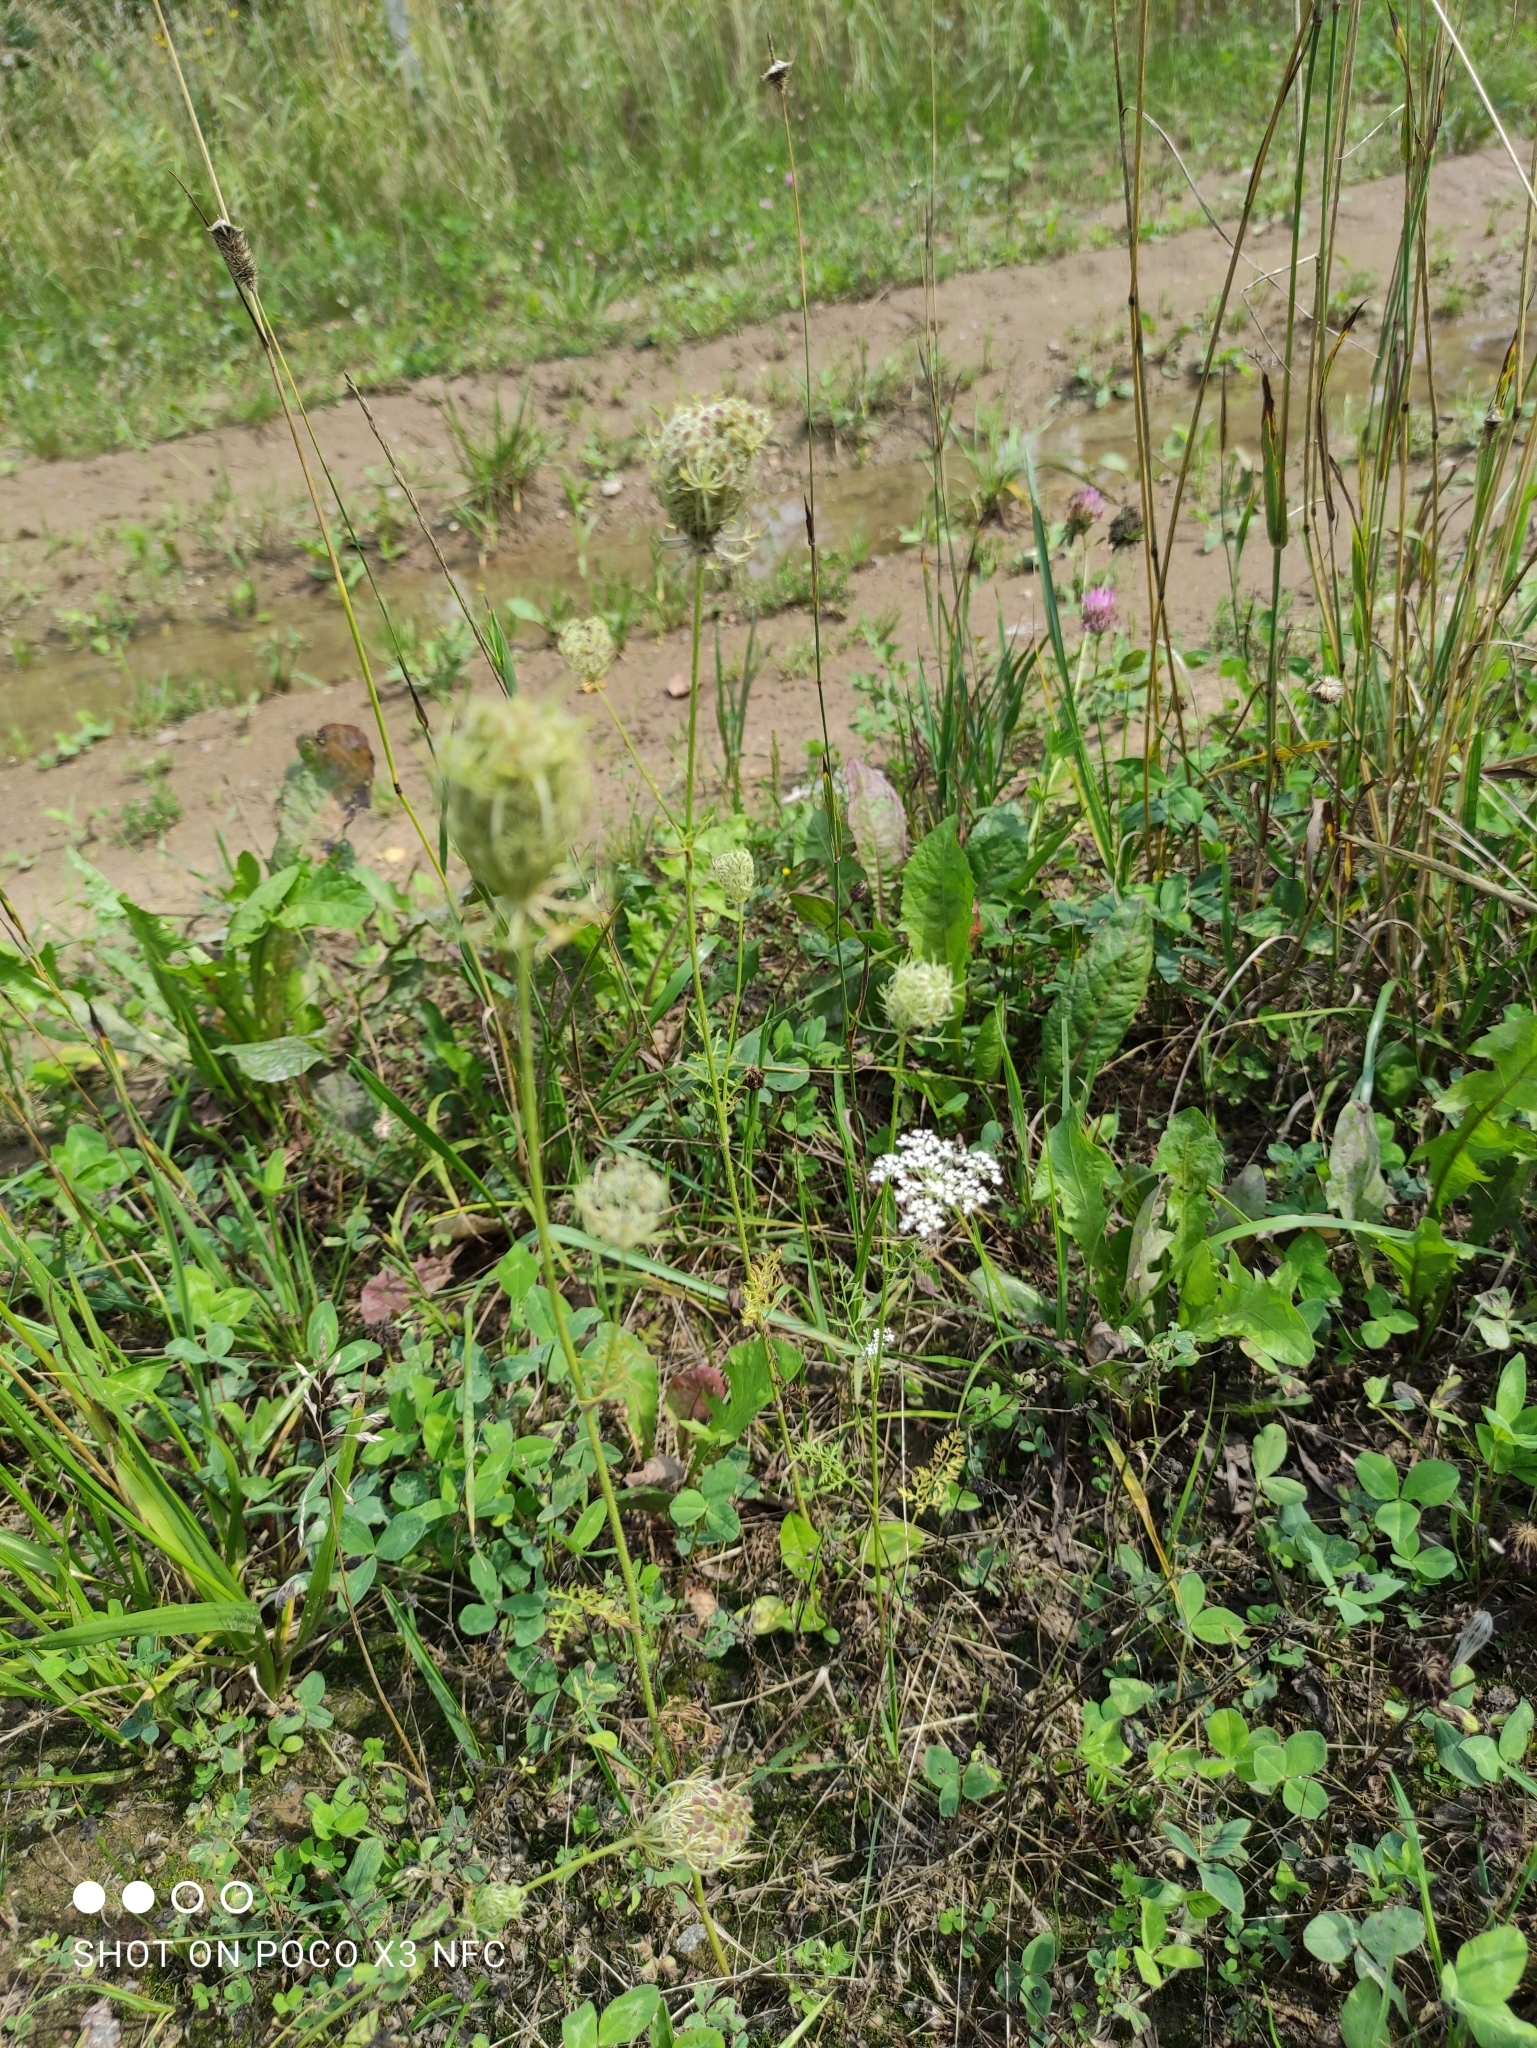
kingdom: Plantae
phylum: Tracheophyta
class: Magnoliopsida
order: Apiales
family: Apiaceae
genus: Daucus
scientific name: Daucus carota
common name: Wild carrot
